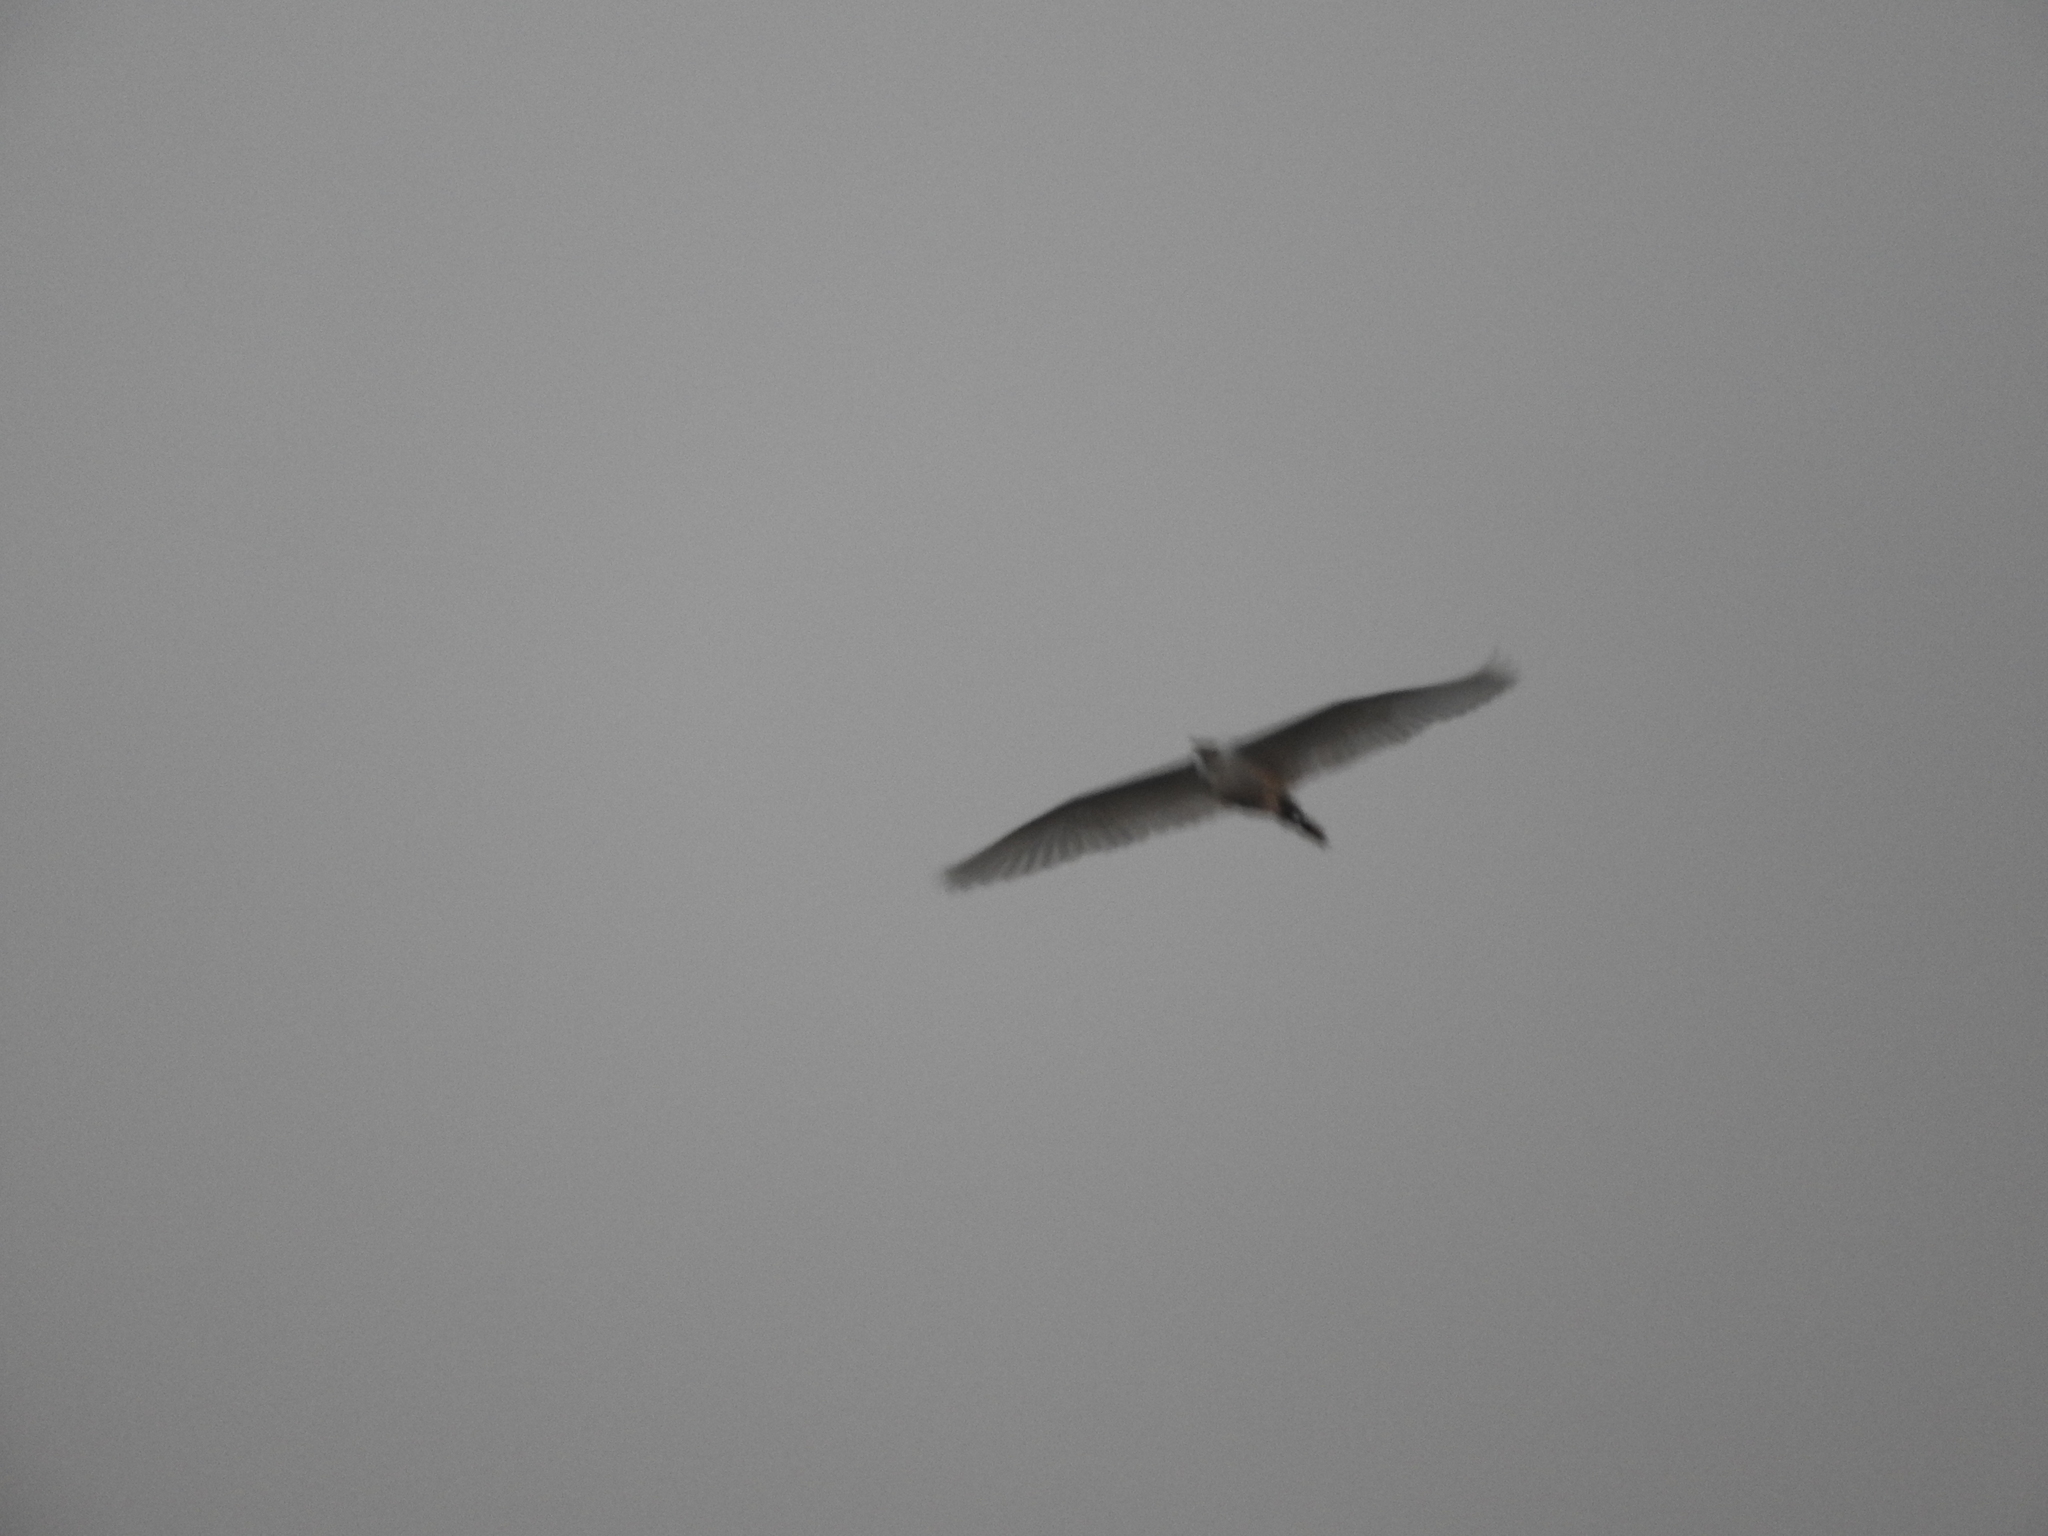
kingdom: Animalia
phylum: Chordata
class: Aves
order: Pelecaniformes
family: Ardeidae
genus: Bubulcus
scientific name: Bubulcus ibis
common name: Cattle egret
